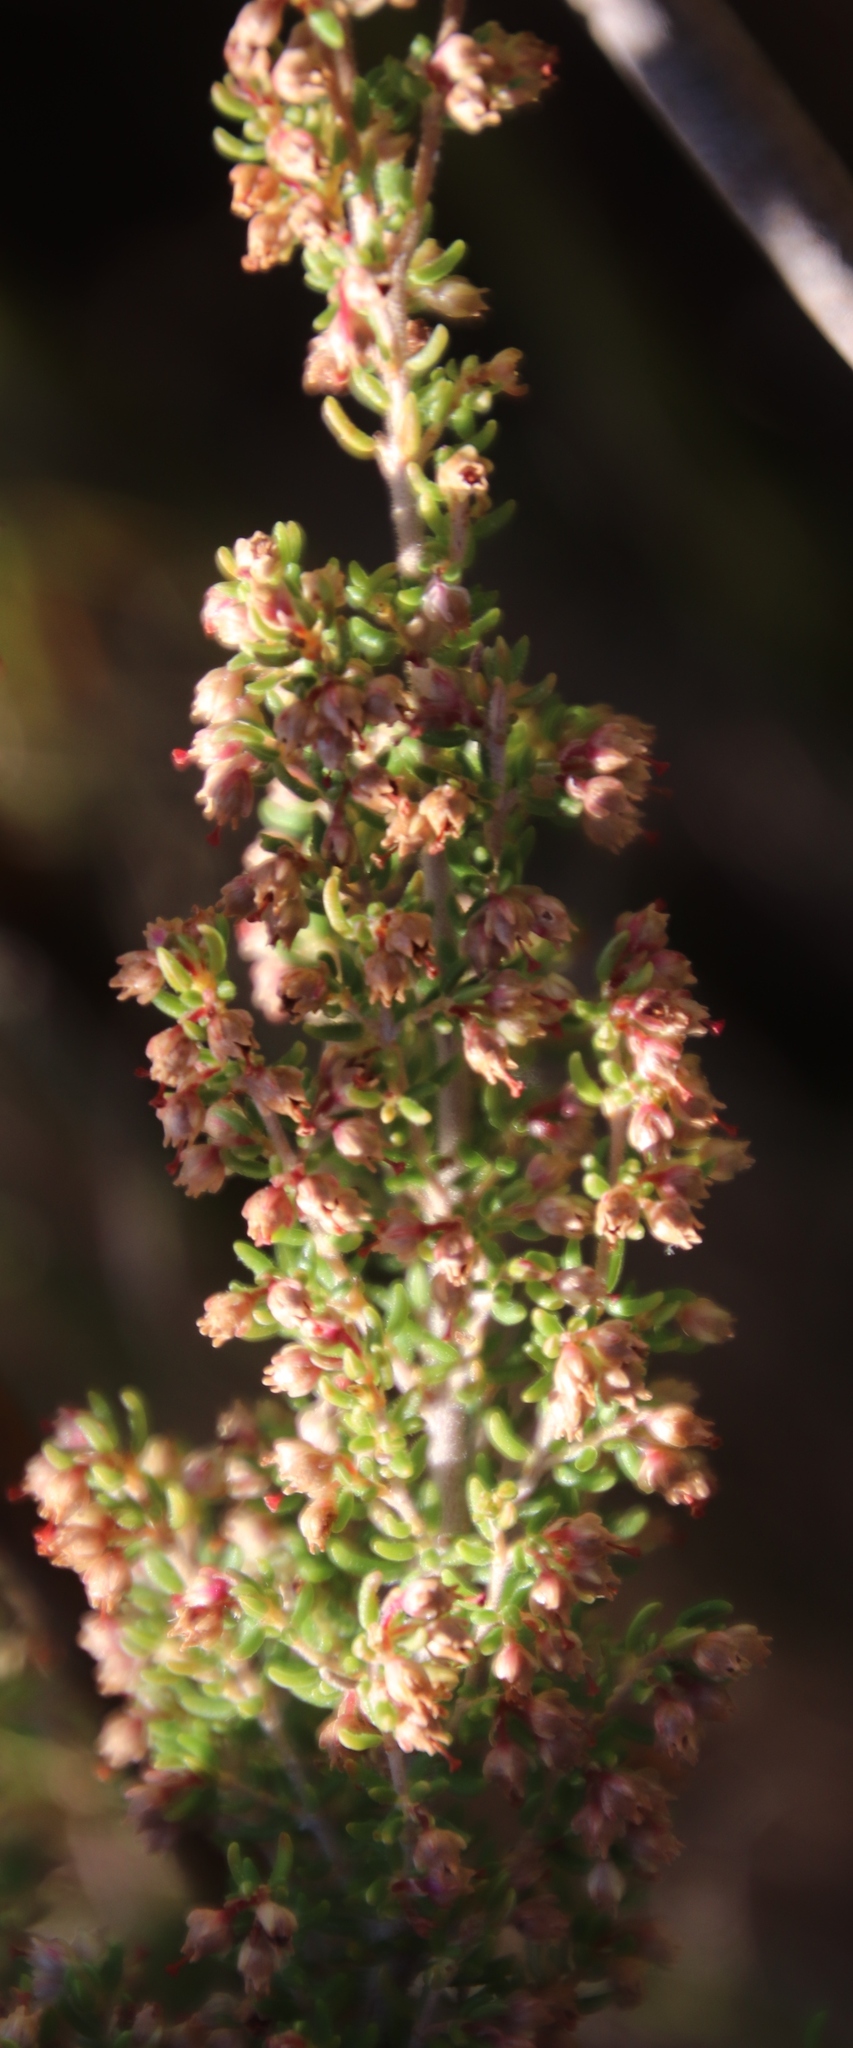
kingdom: Plantae
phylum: Tracheophyta
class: Magnoliopsida
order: Ericales
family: Ericaceae
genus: Erica
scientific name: Erica hispidula
